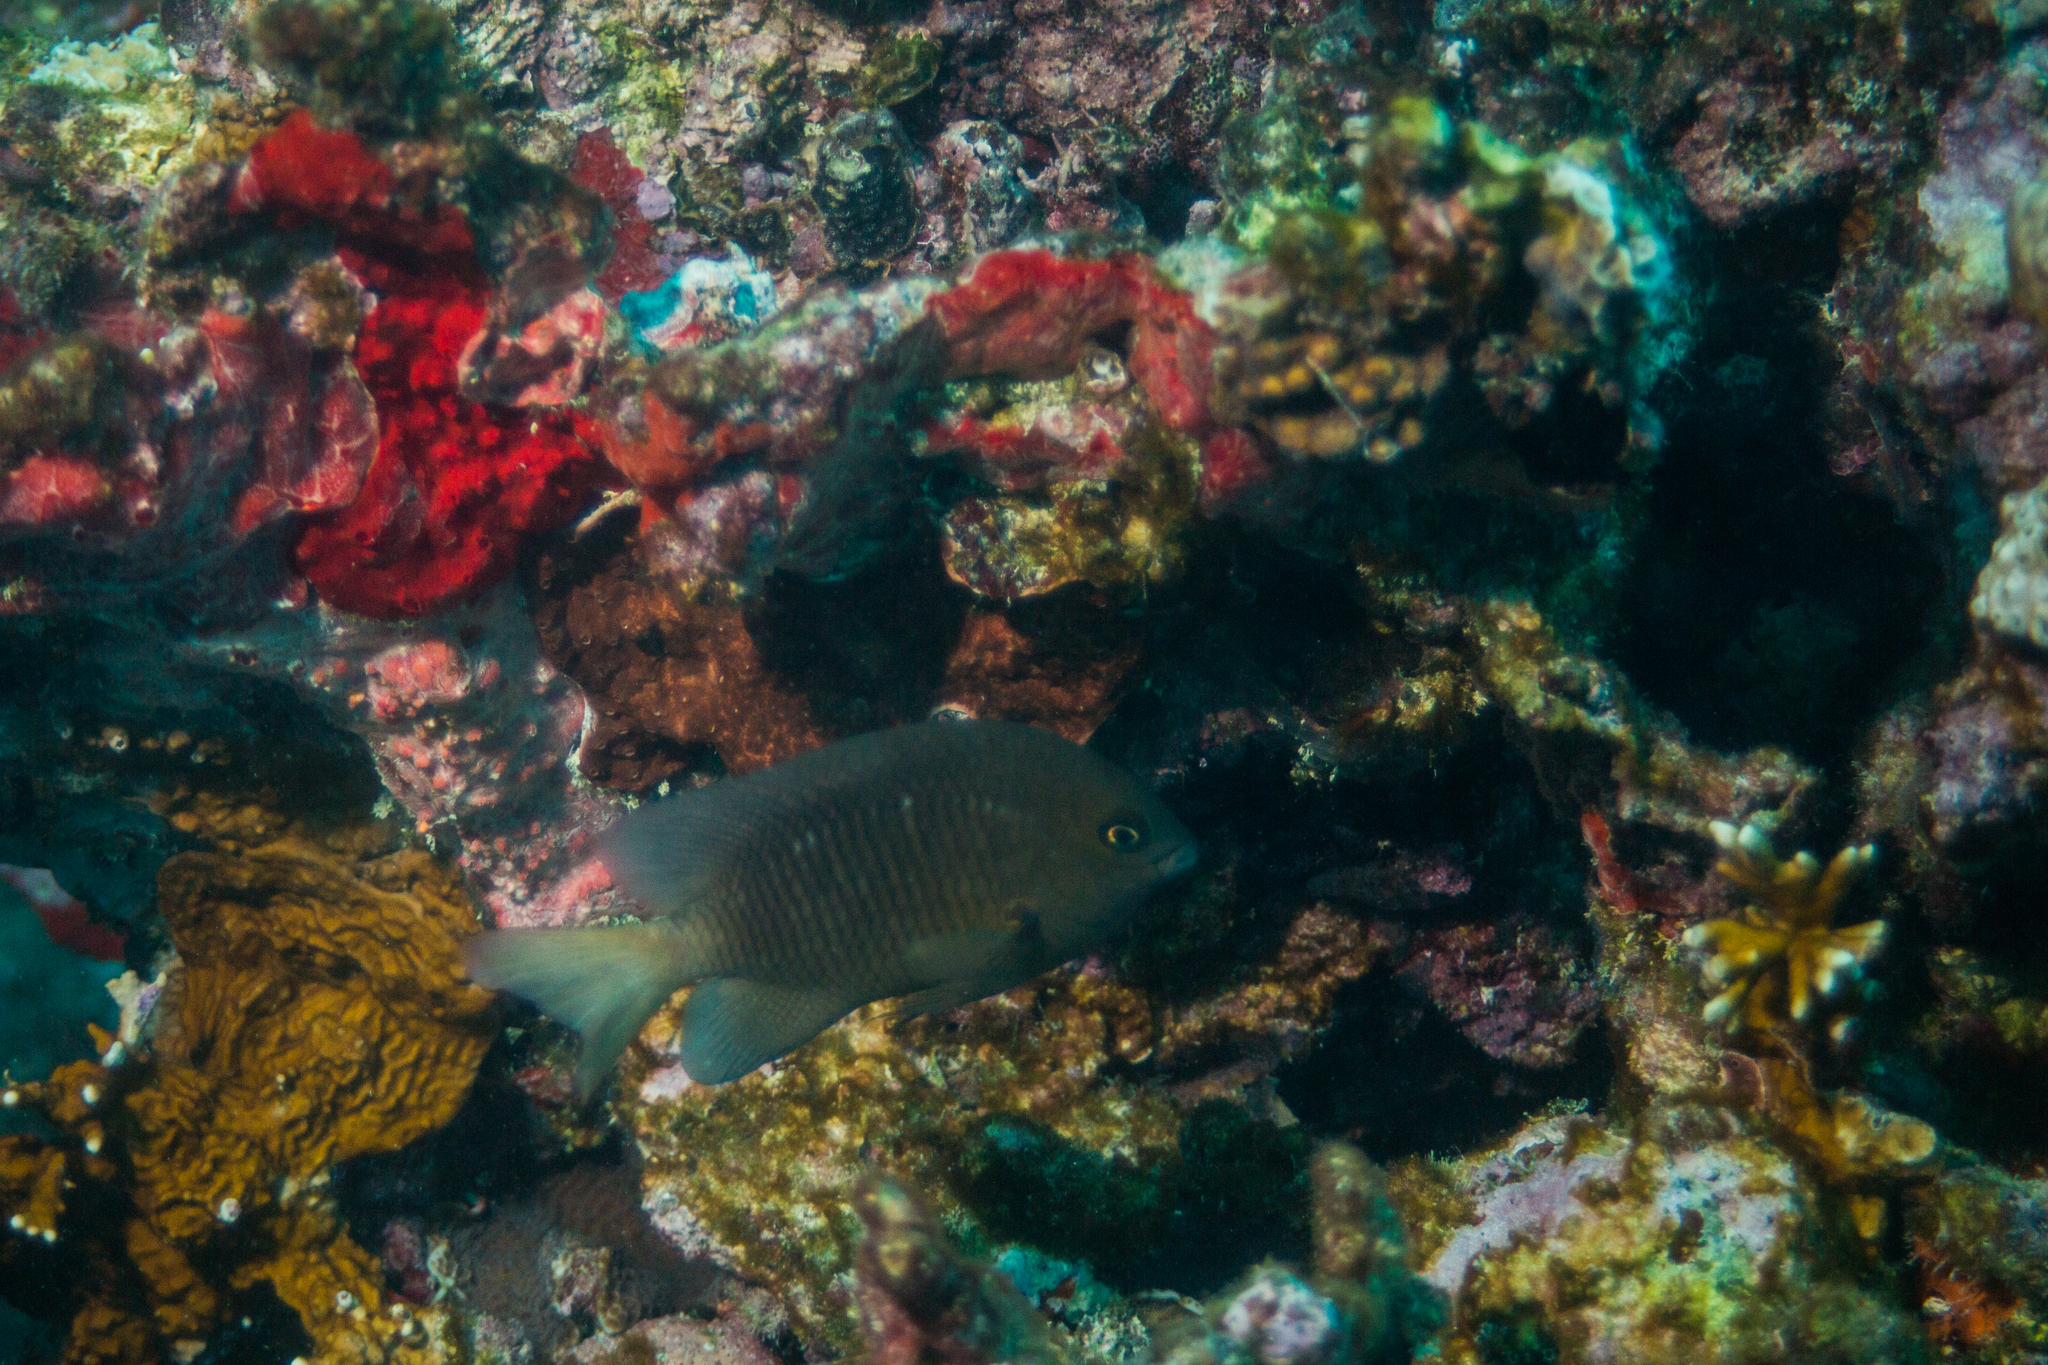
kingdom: Animalia
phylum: Chordata
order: Perciformes
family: Pomacentridae
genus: Stegastes
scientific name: Stegastes fuscus
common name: Brazilian damsel
